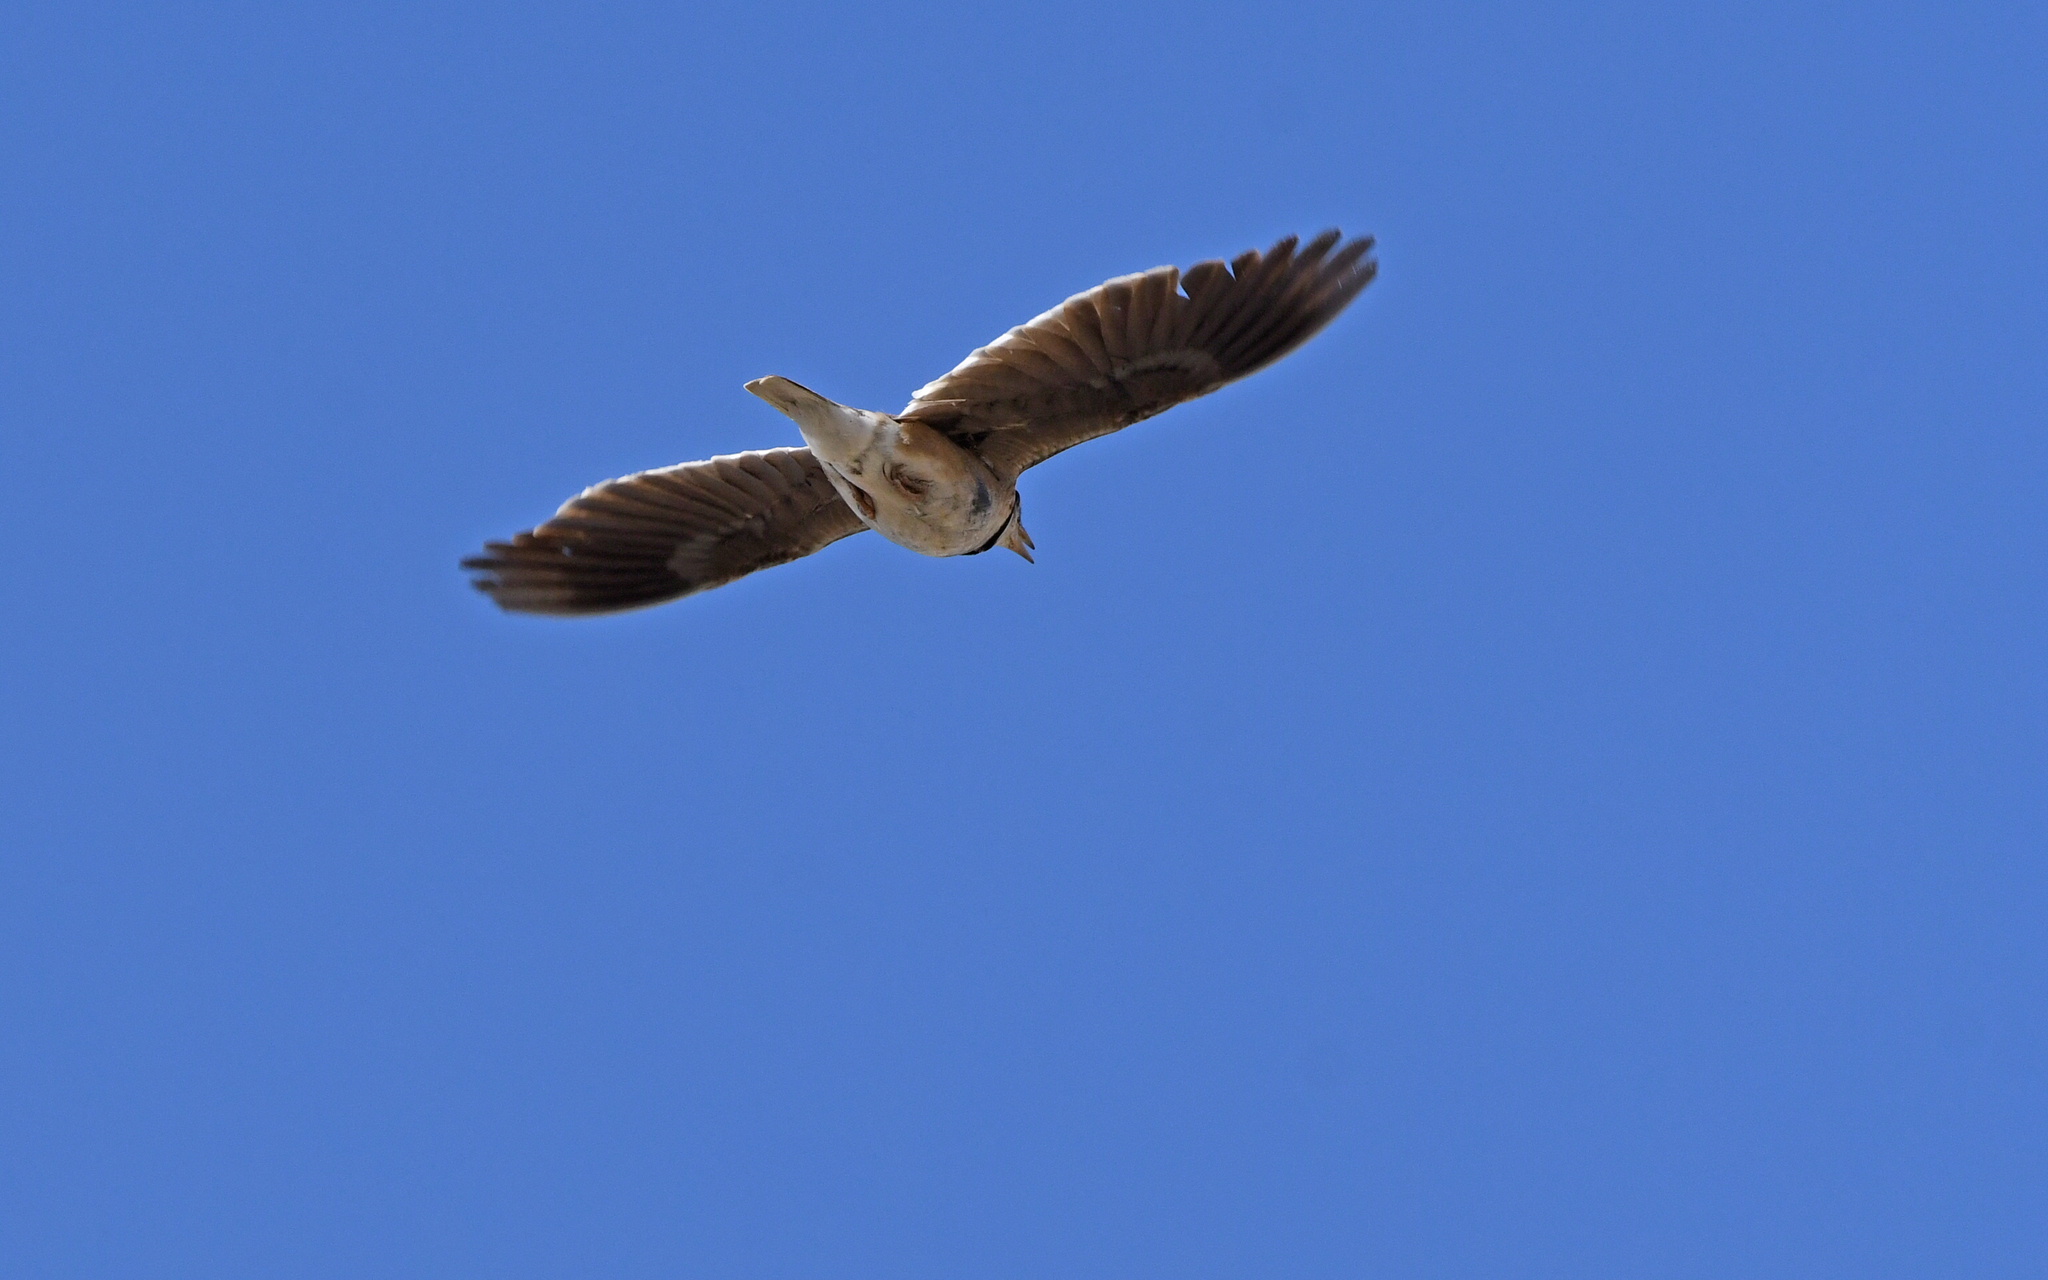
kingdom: Animalia
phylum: Chordata
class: Aves
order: Passeriformes
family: Alaudidae
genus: Melanocorypha
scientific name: Melanocorypha calandra
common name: Calandra lark
